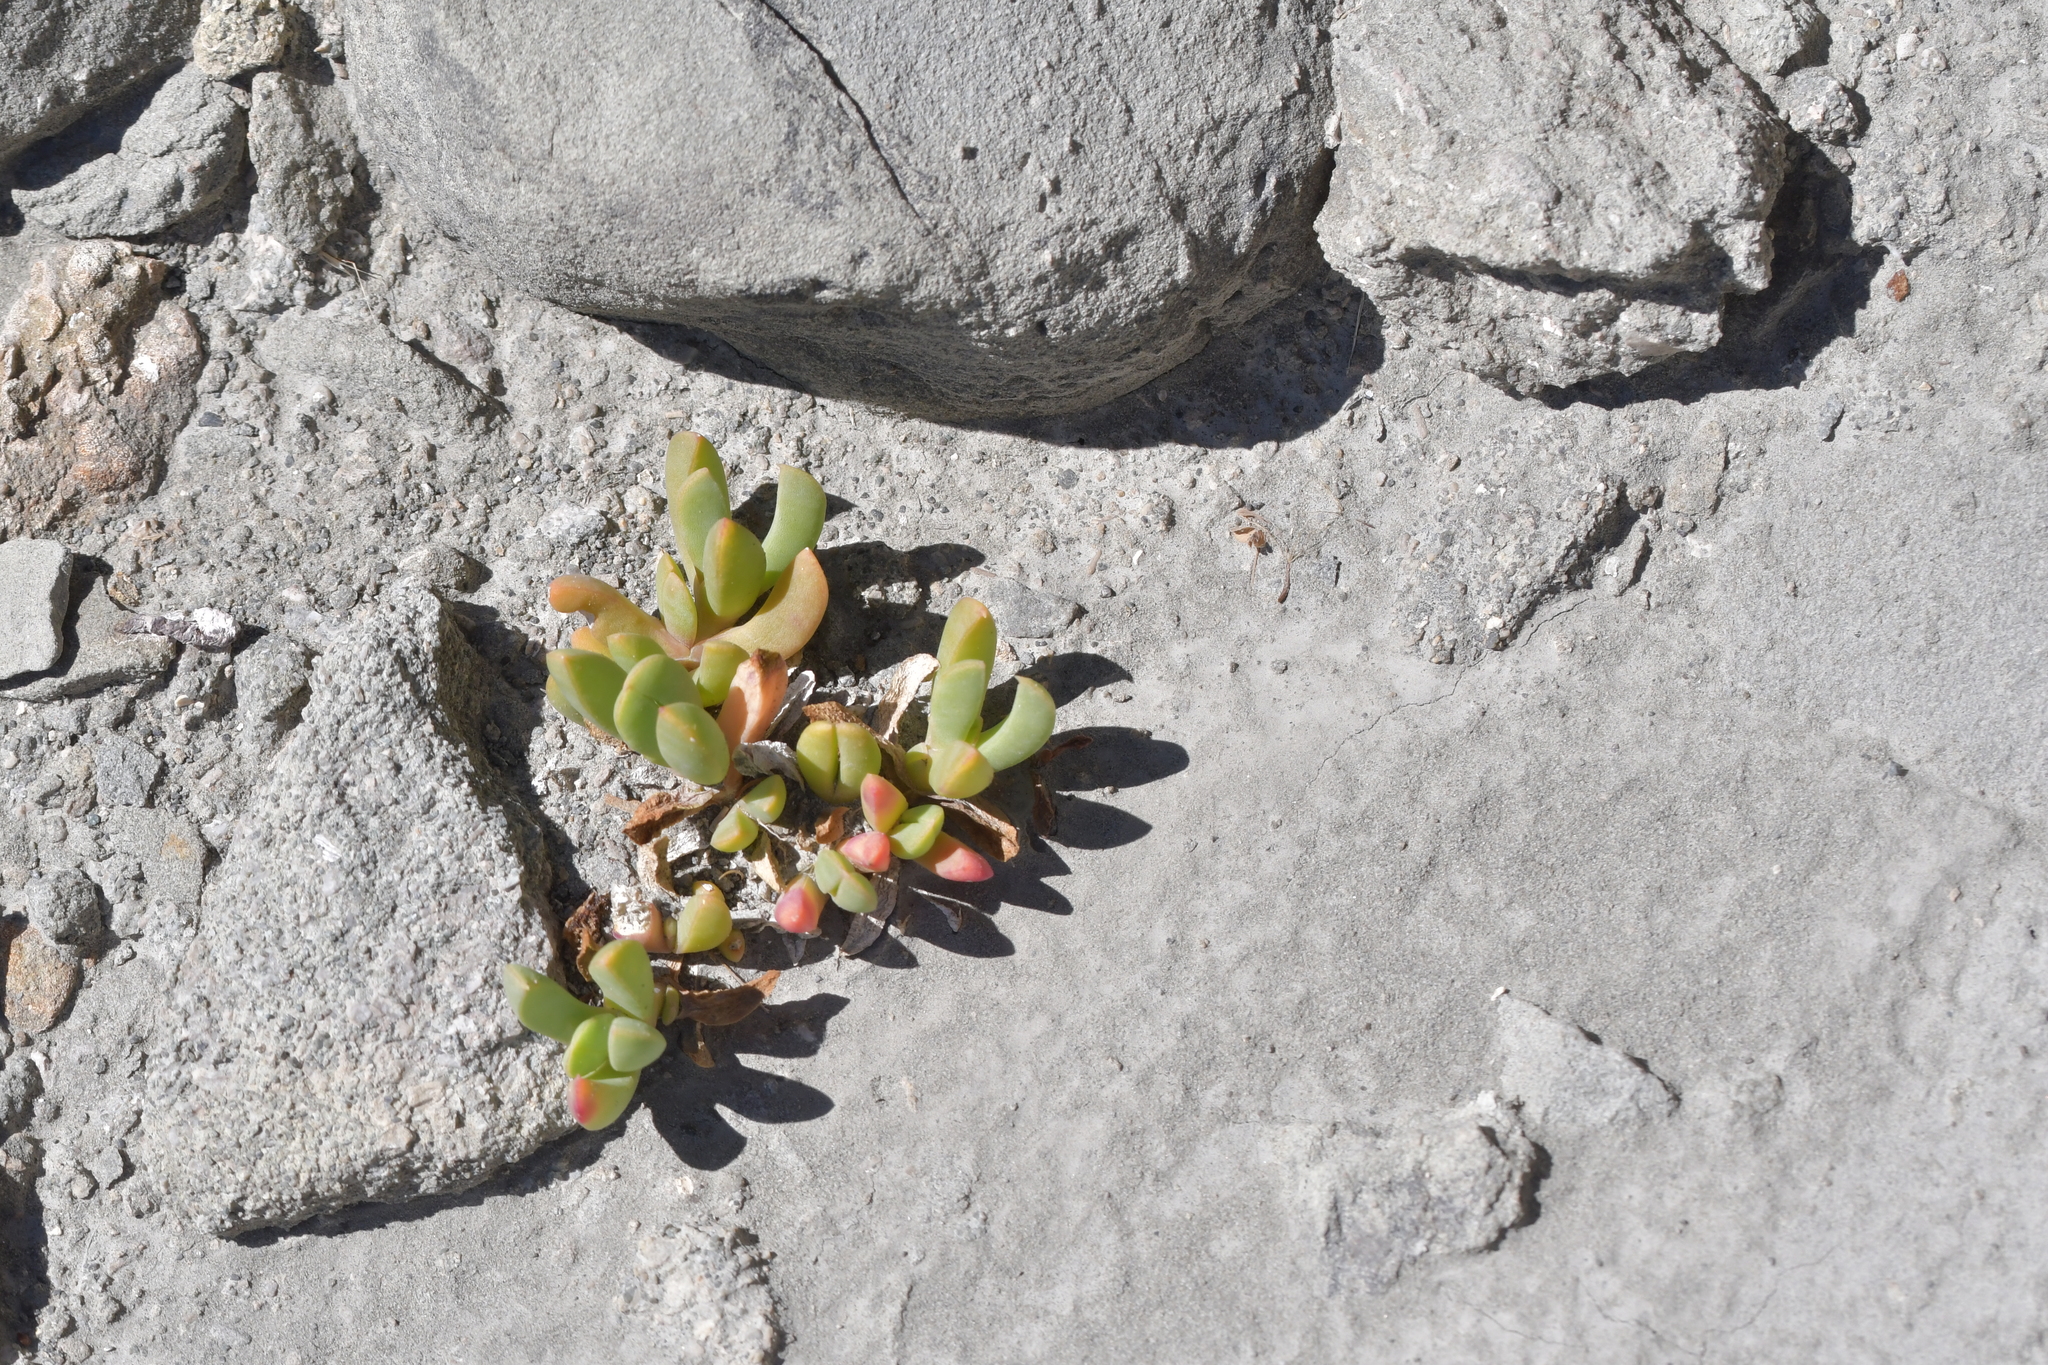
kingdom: Plantae
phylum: Tracheophyta
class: Magnoliopsida
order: Caryophyllales
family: Aizoaceae
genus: Disphyma
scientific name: Disphyma australe
